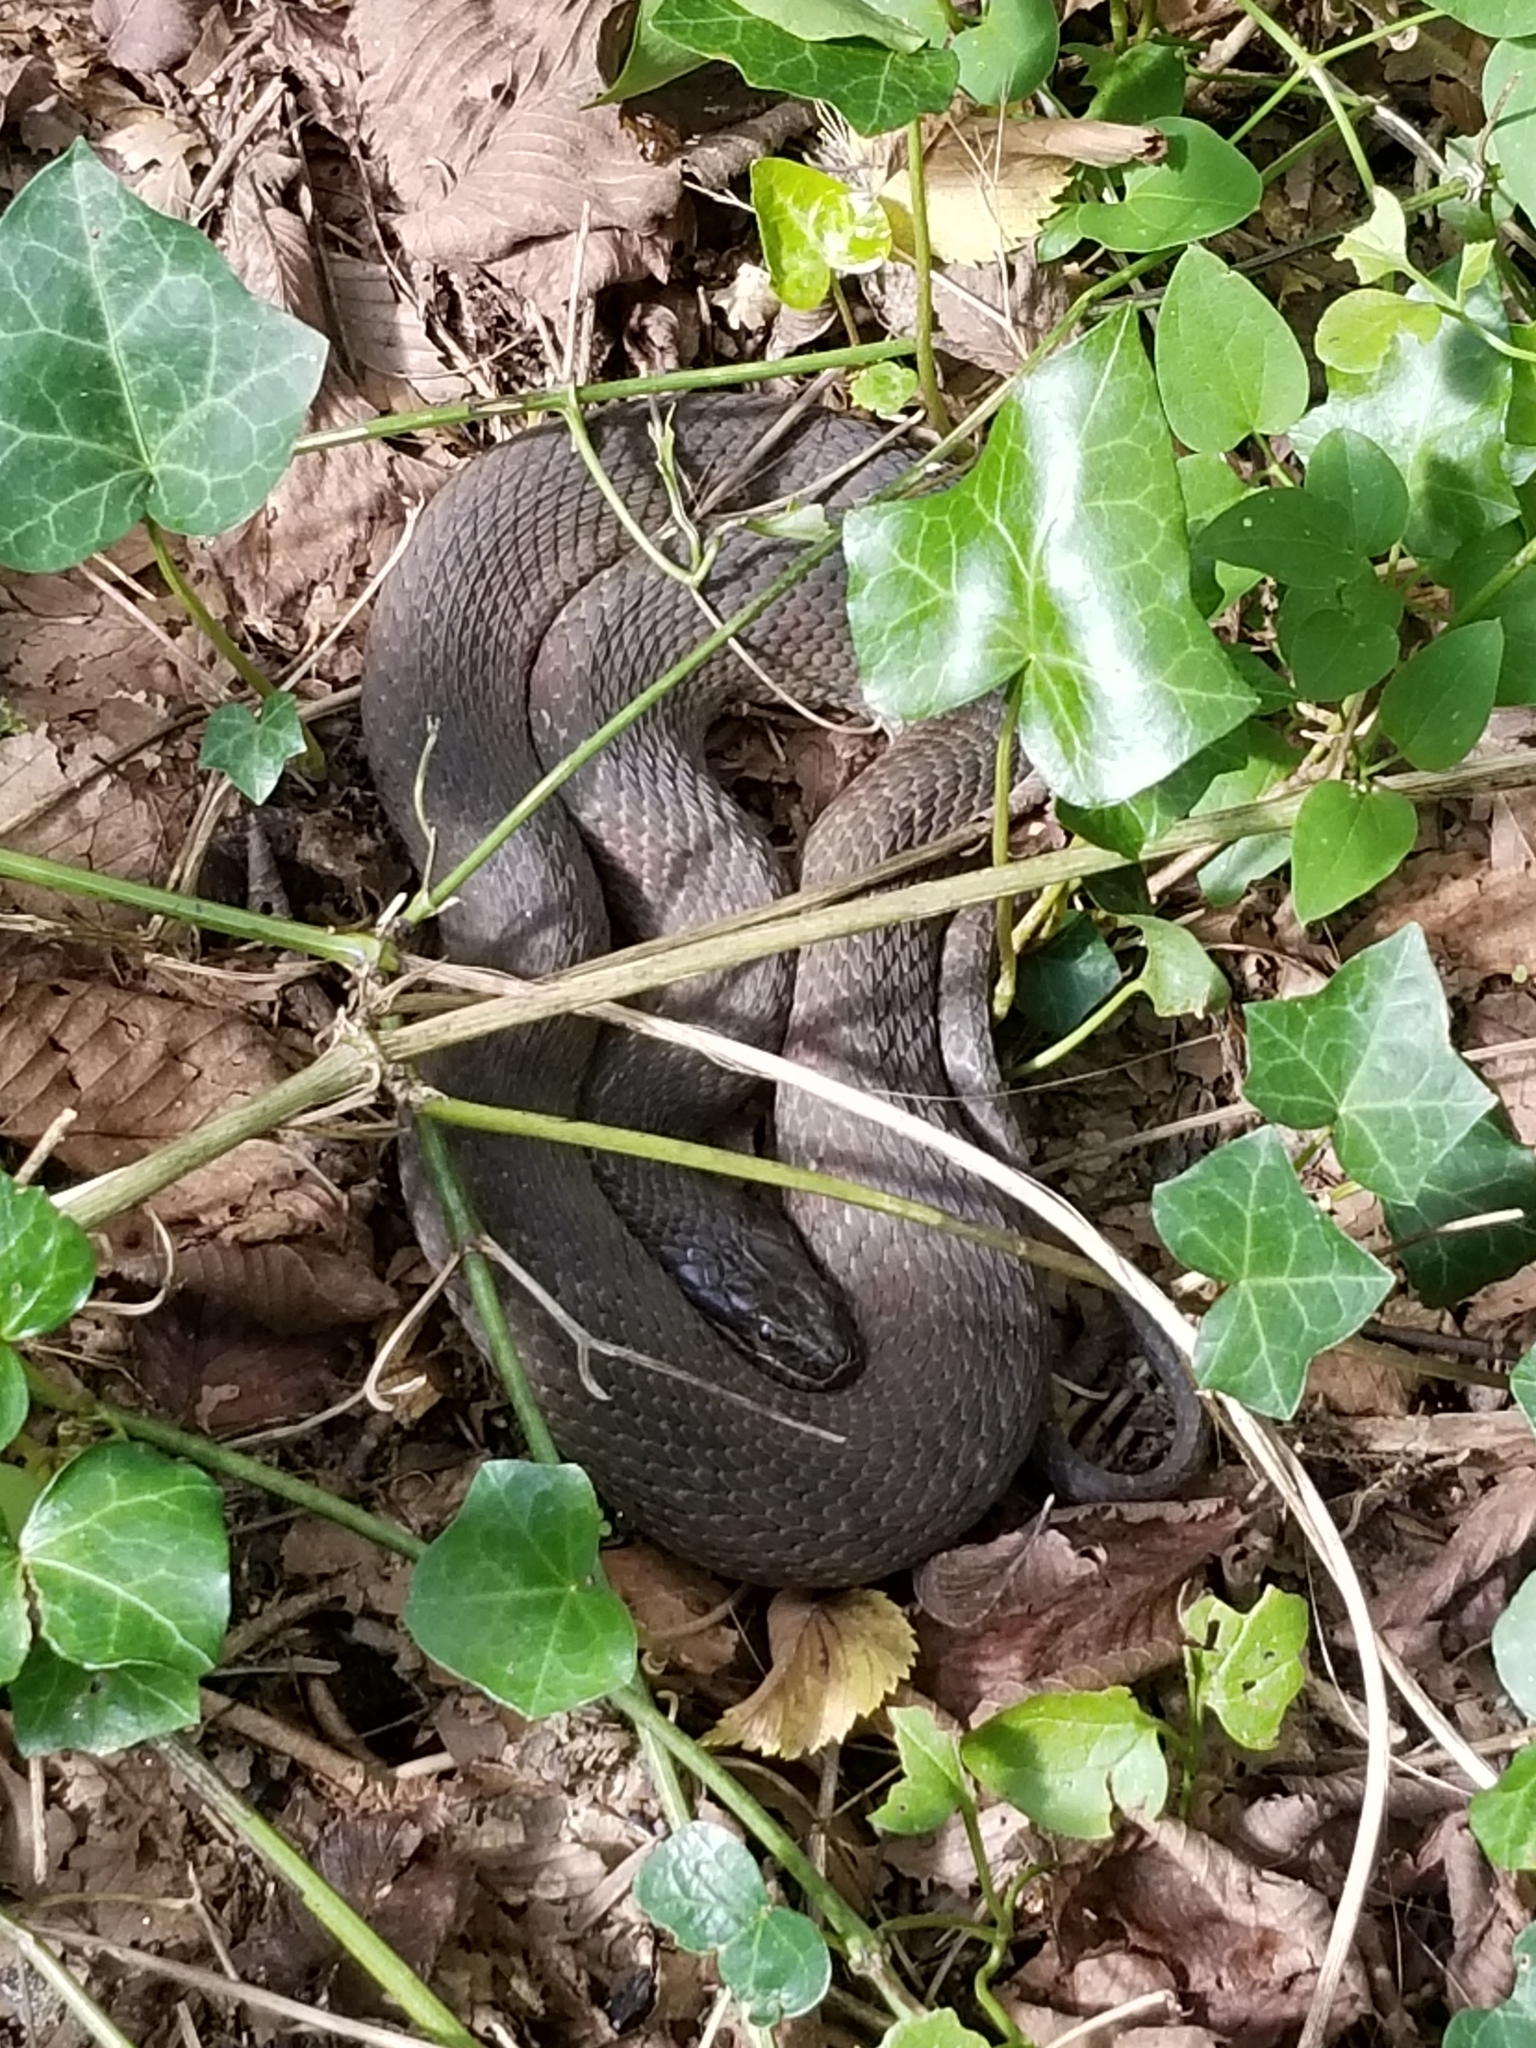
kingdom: Animalia
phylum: Chordata
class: Squamata
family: Colubridae
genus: Nerodia
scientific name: Nerodia sipedon
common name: Northern water snake
